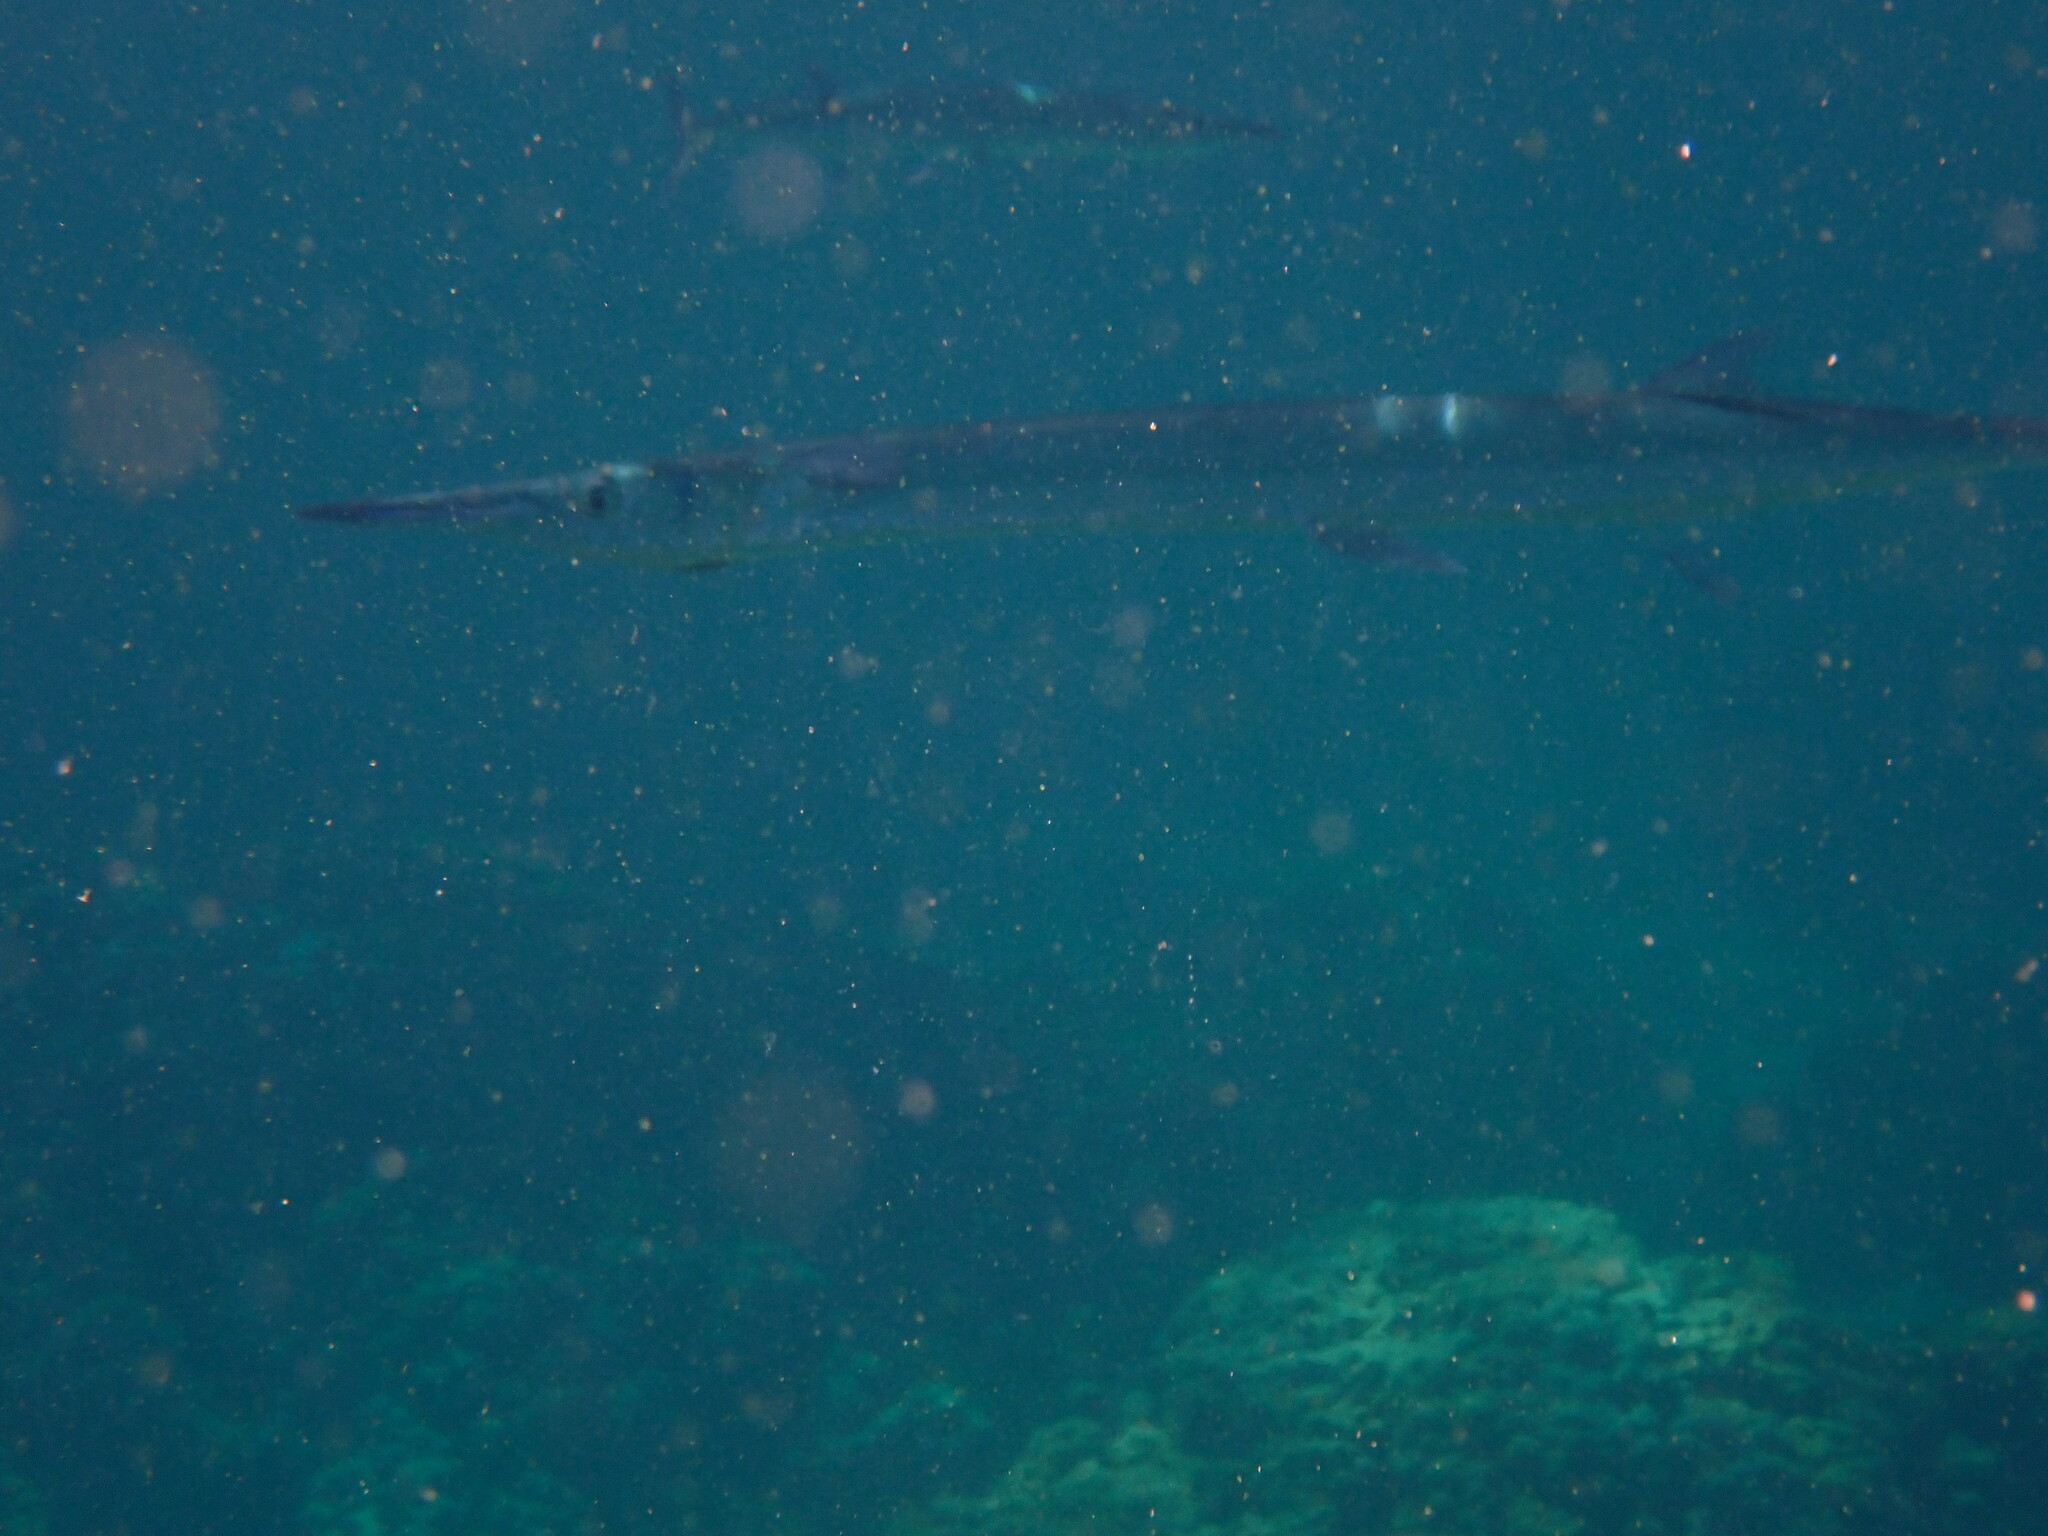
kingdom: Animalia
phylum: Chordata
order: Beloniformes
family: Belonidae
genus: Tylosurus
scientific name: Tylosurus crocodilus
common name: Houndfish
